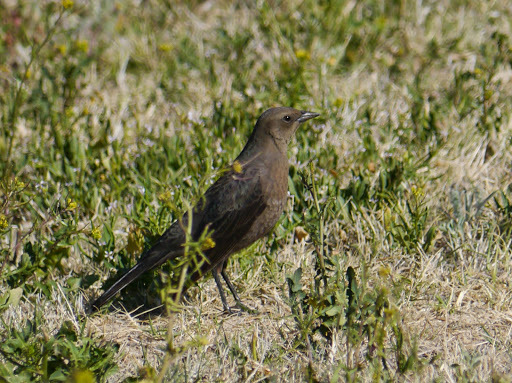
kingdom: Animalia
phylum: Chordata
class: Aves
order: Passeriformes
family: Icteridae
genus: Euphagus
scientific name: Euphagus cyanocephalus
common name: Brewer's blackbird
